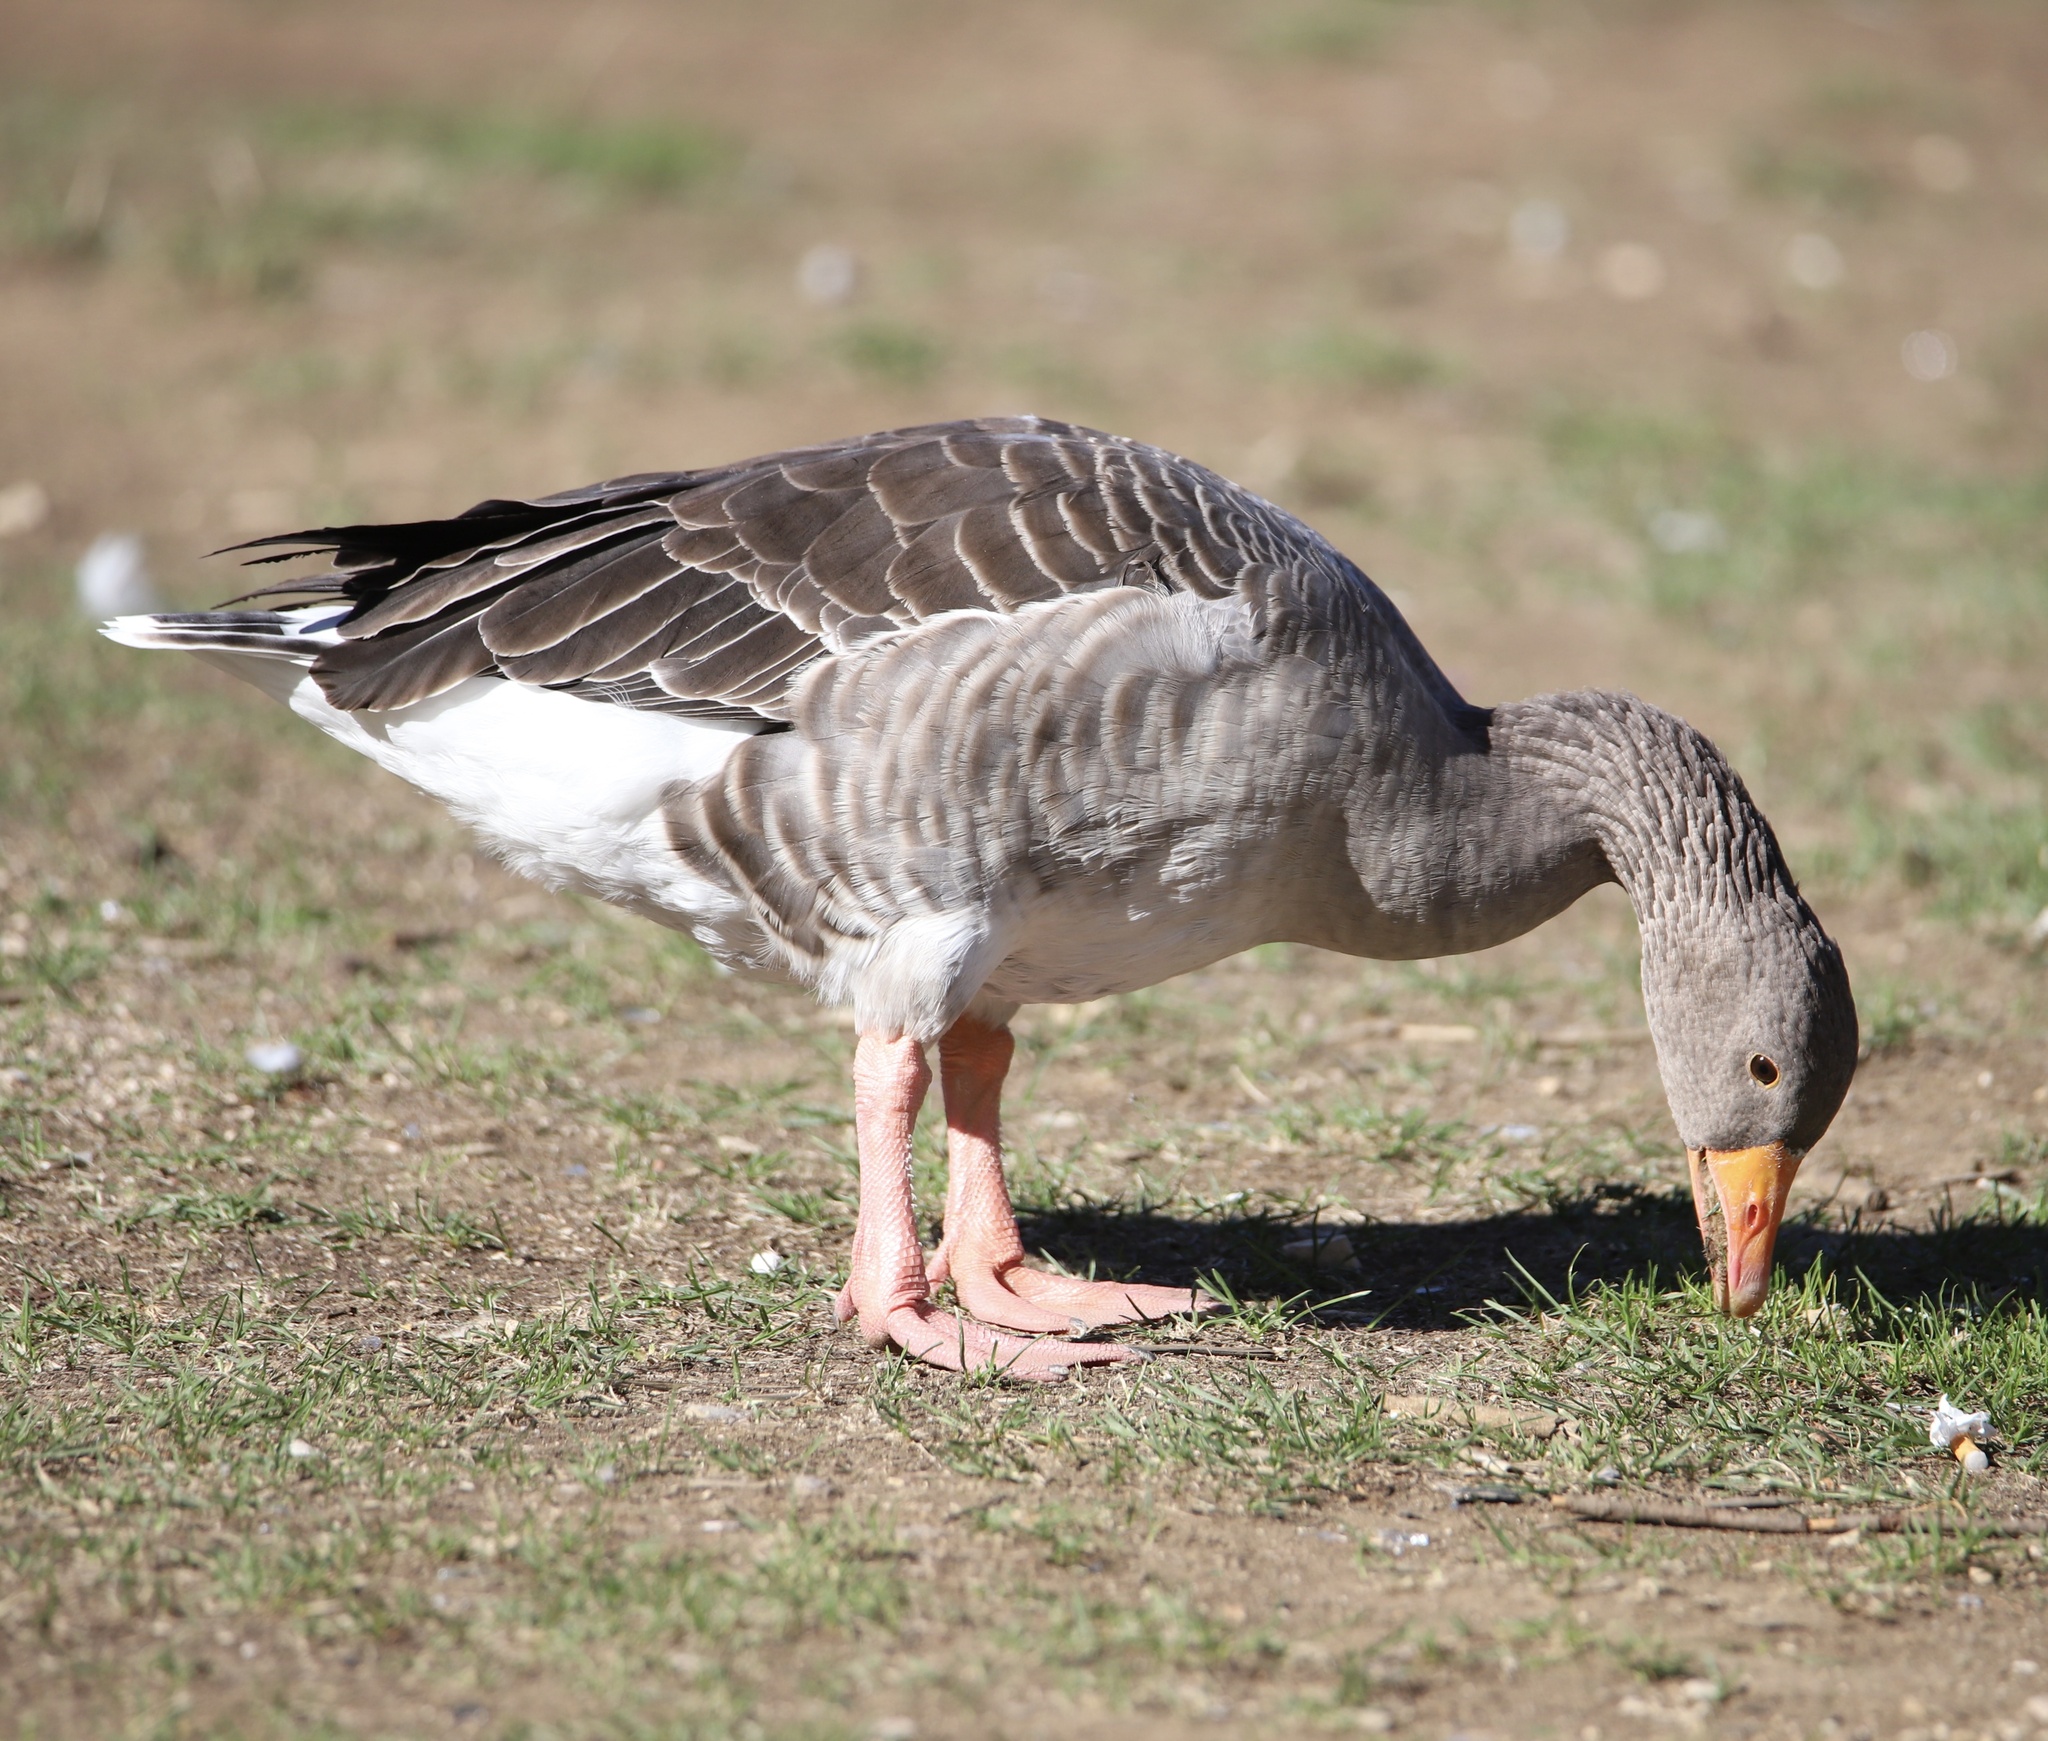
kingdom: Animalia
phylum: Chordata
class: Aves
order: Anseriformes
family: Anatidae
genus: Anser
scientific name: Anser anser
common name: Greylag goose
